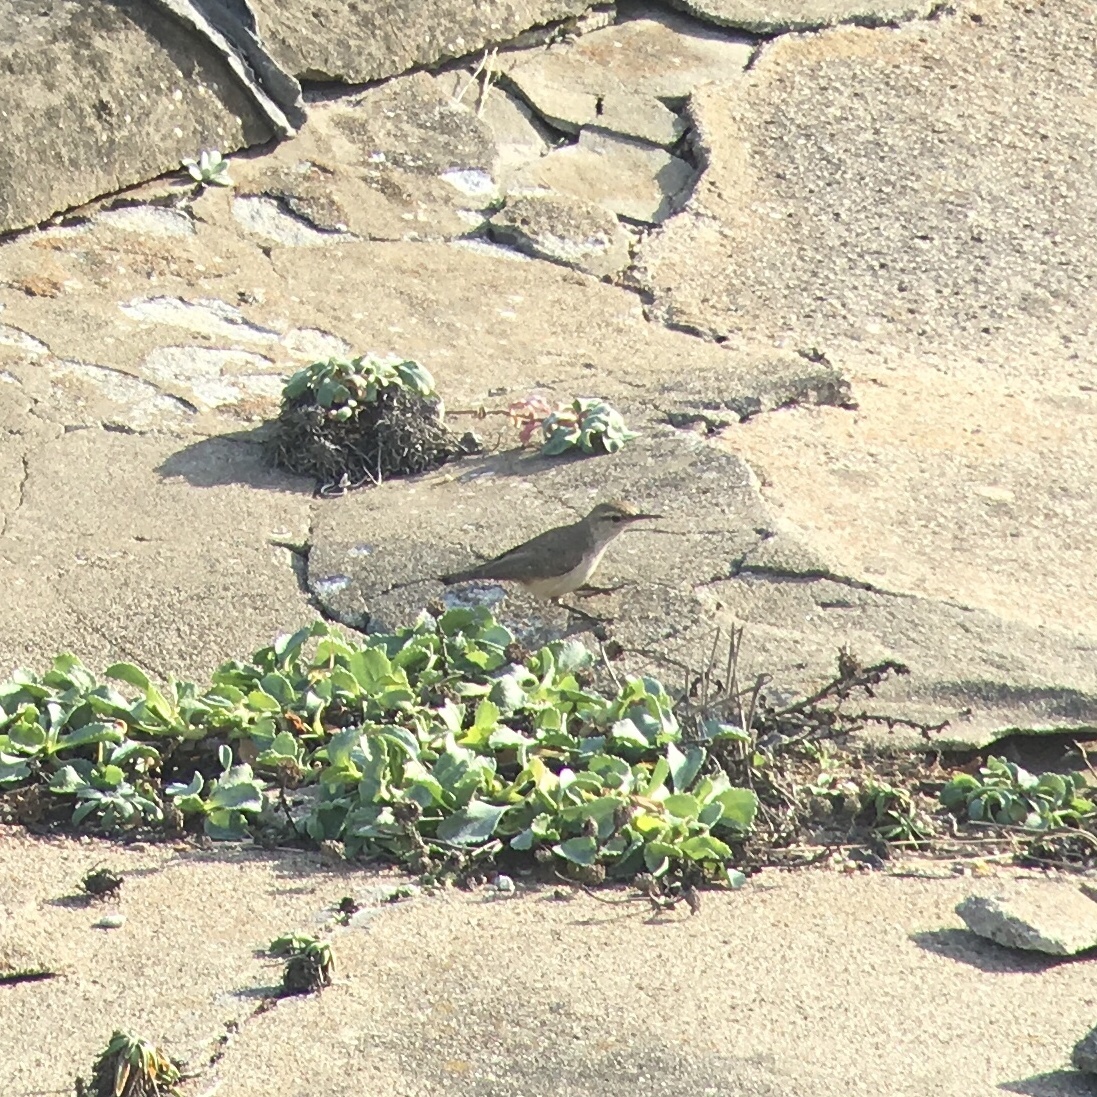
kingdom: Animalia
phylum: Chordata
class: Aves
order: Passeriformes
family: Troglodytidae
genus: Salpinctes
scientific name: Salpinctes obsoletus
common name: Rock wren
